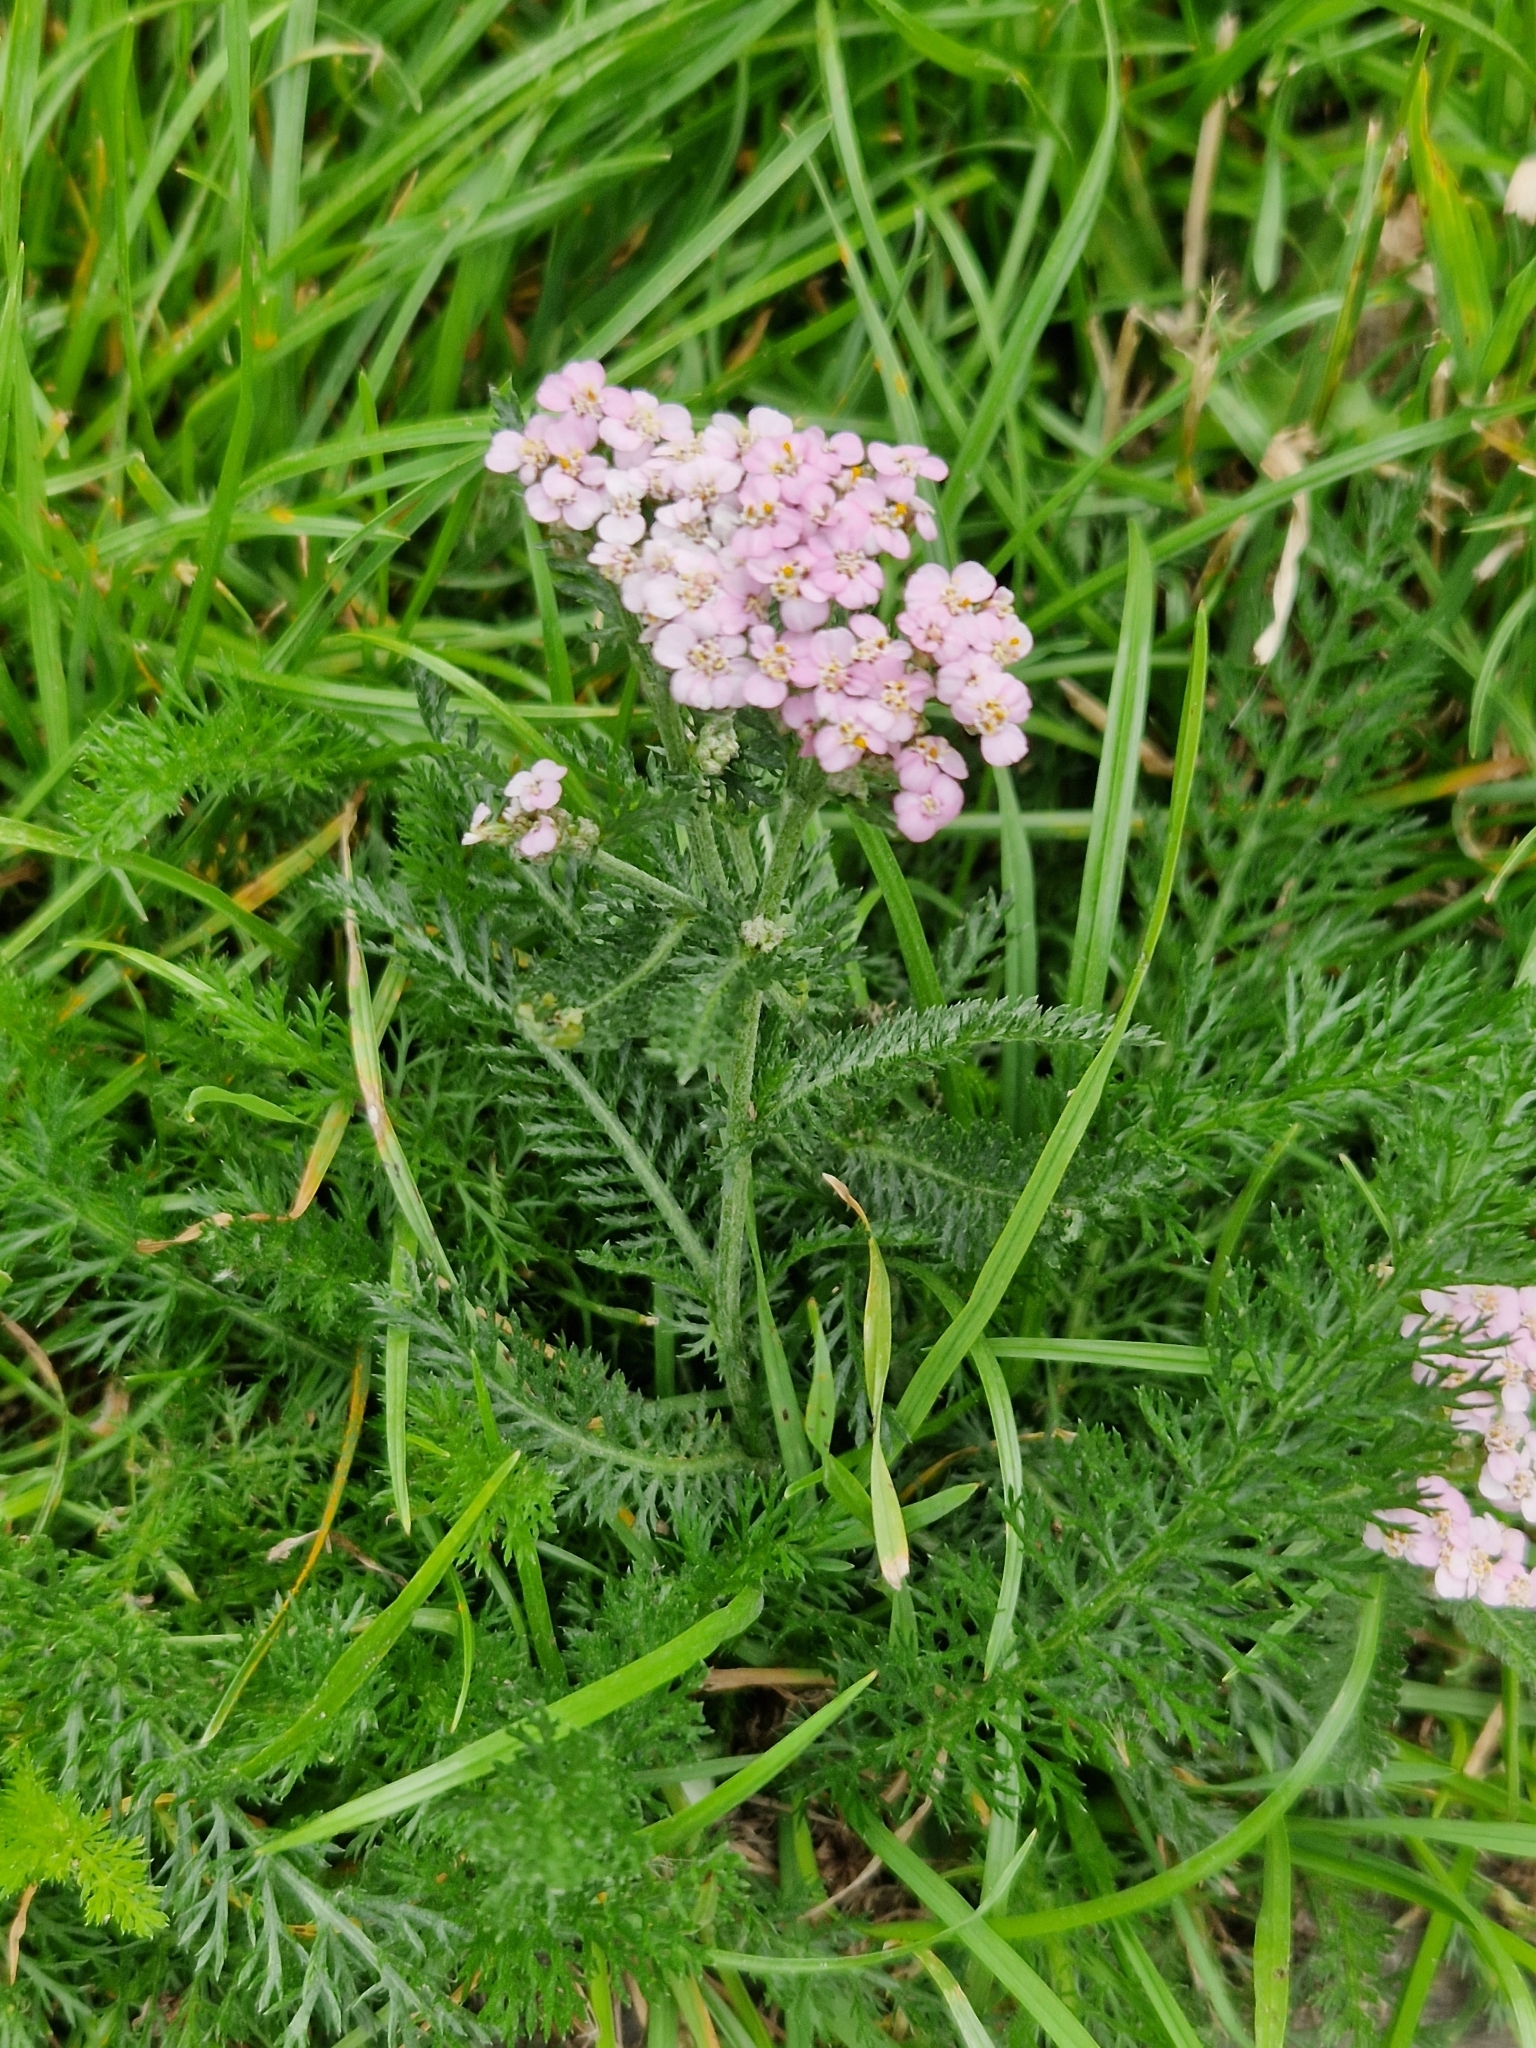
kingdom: Plantae
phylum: Tracheophyta
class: Magnoliopsida
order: Asterales
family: Asteraceae
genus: Achillea
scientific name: Achillea millefolium
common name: Yarrow
